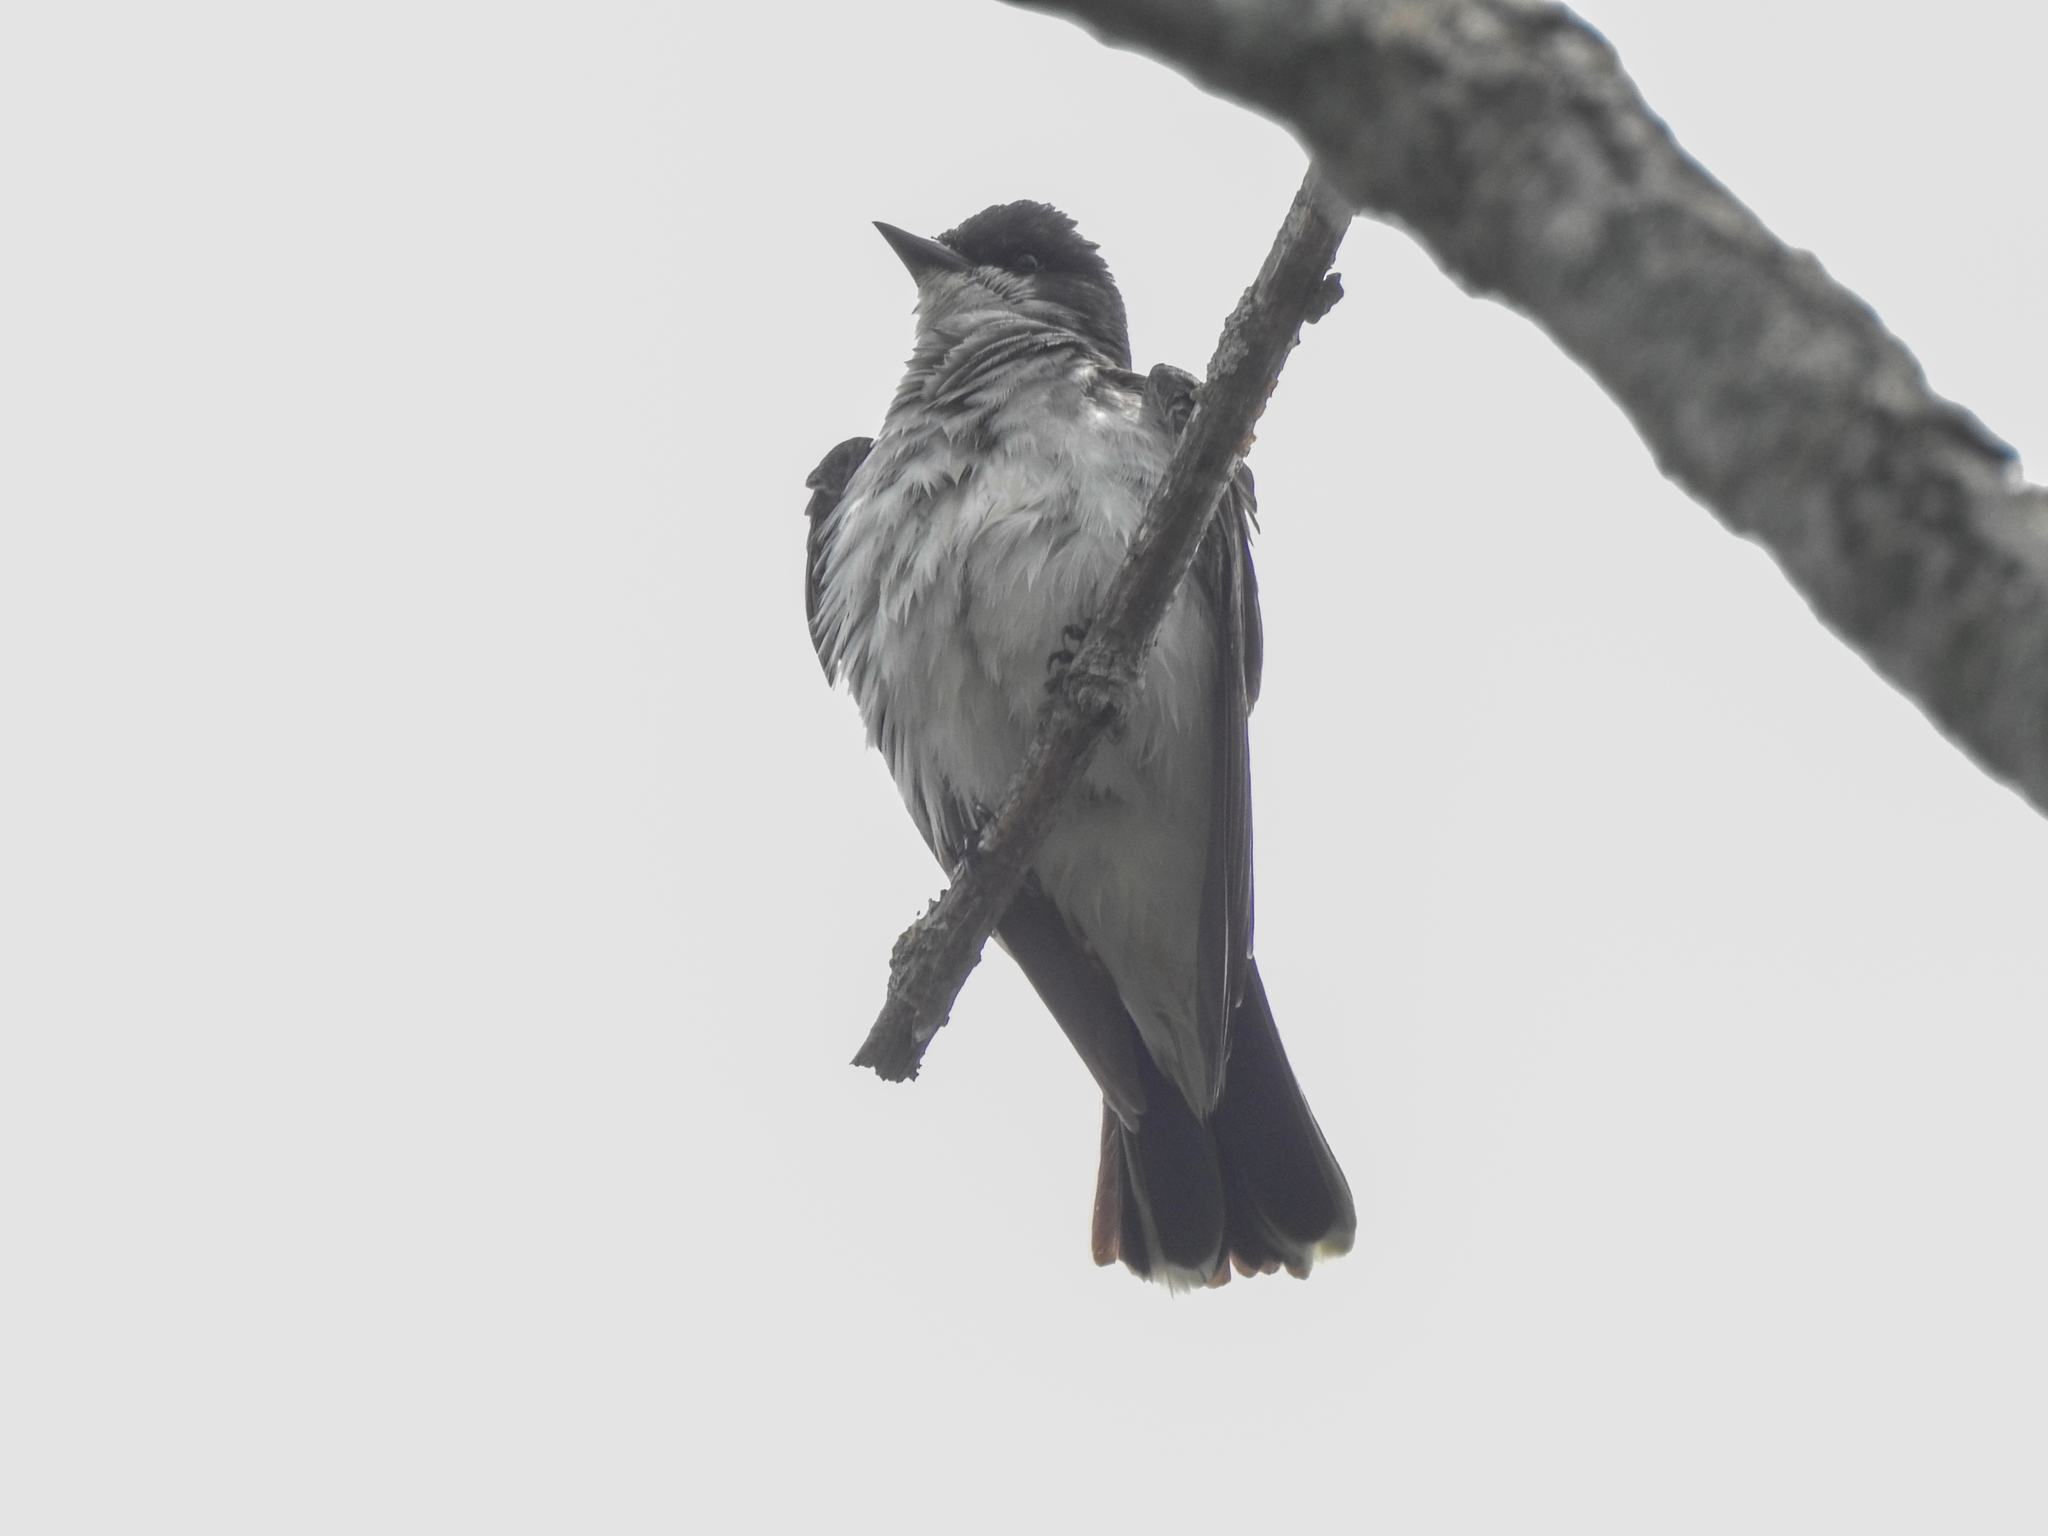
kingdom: Animalia
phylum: Chordata
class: Aves
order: Passeriformes
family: Tyrannidae
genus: Tyrannus
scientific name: Tyrannus tyrannus
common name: Eastern kingbird
